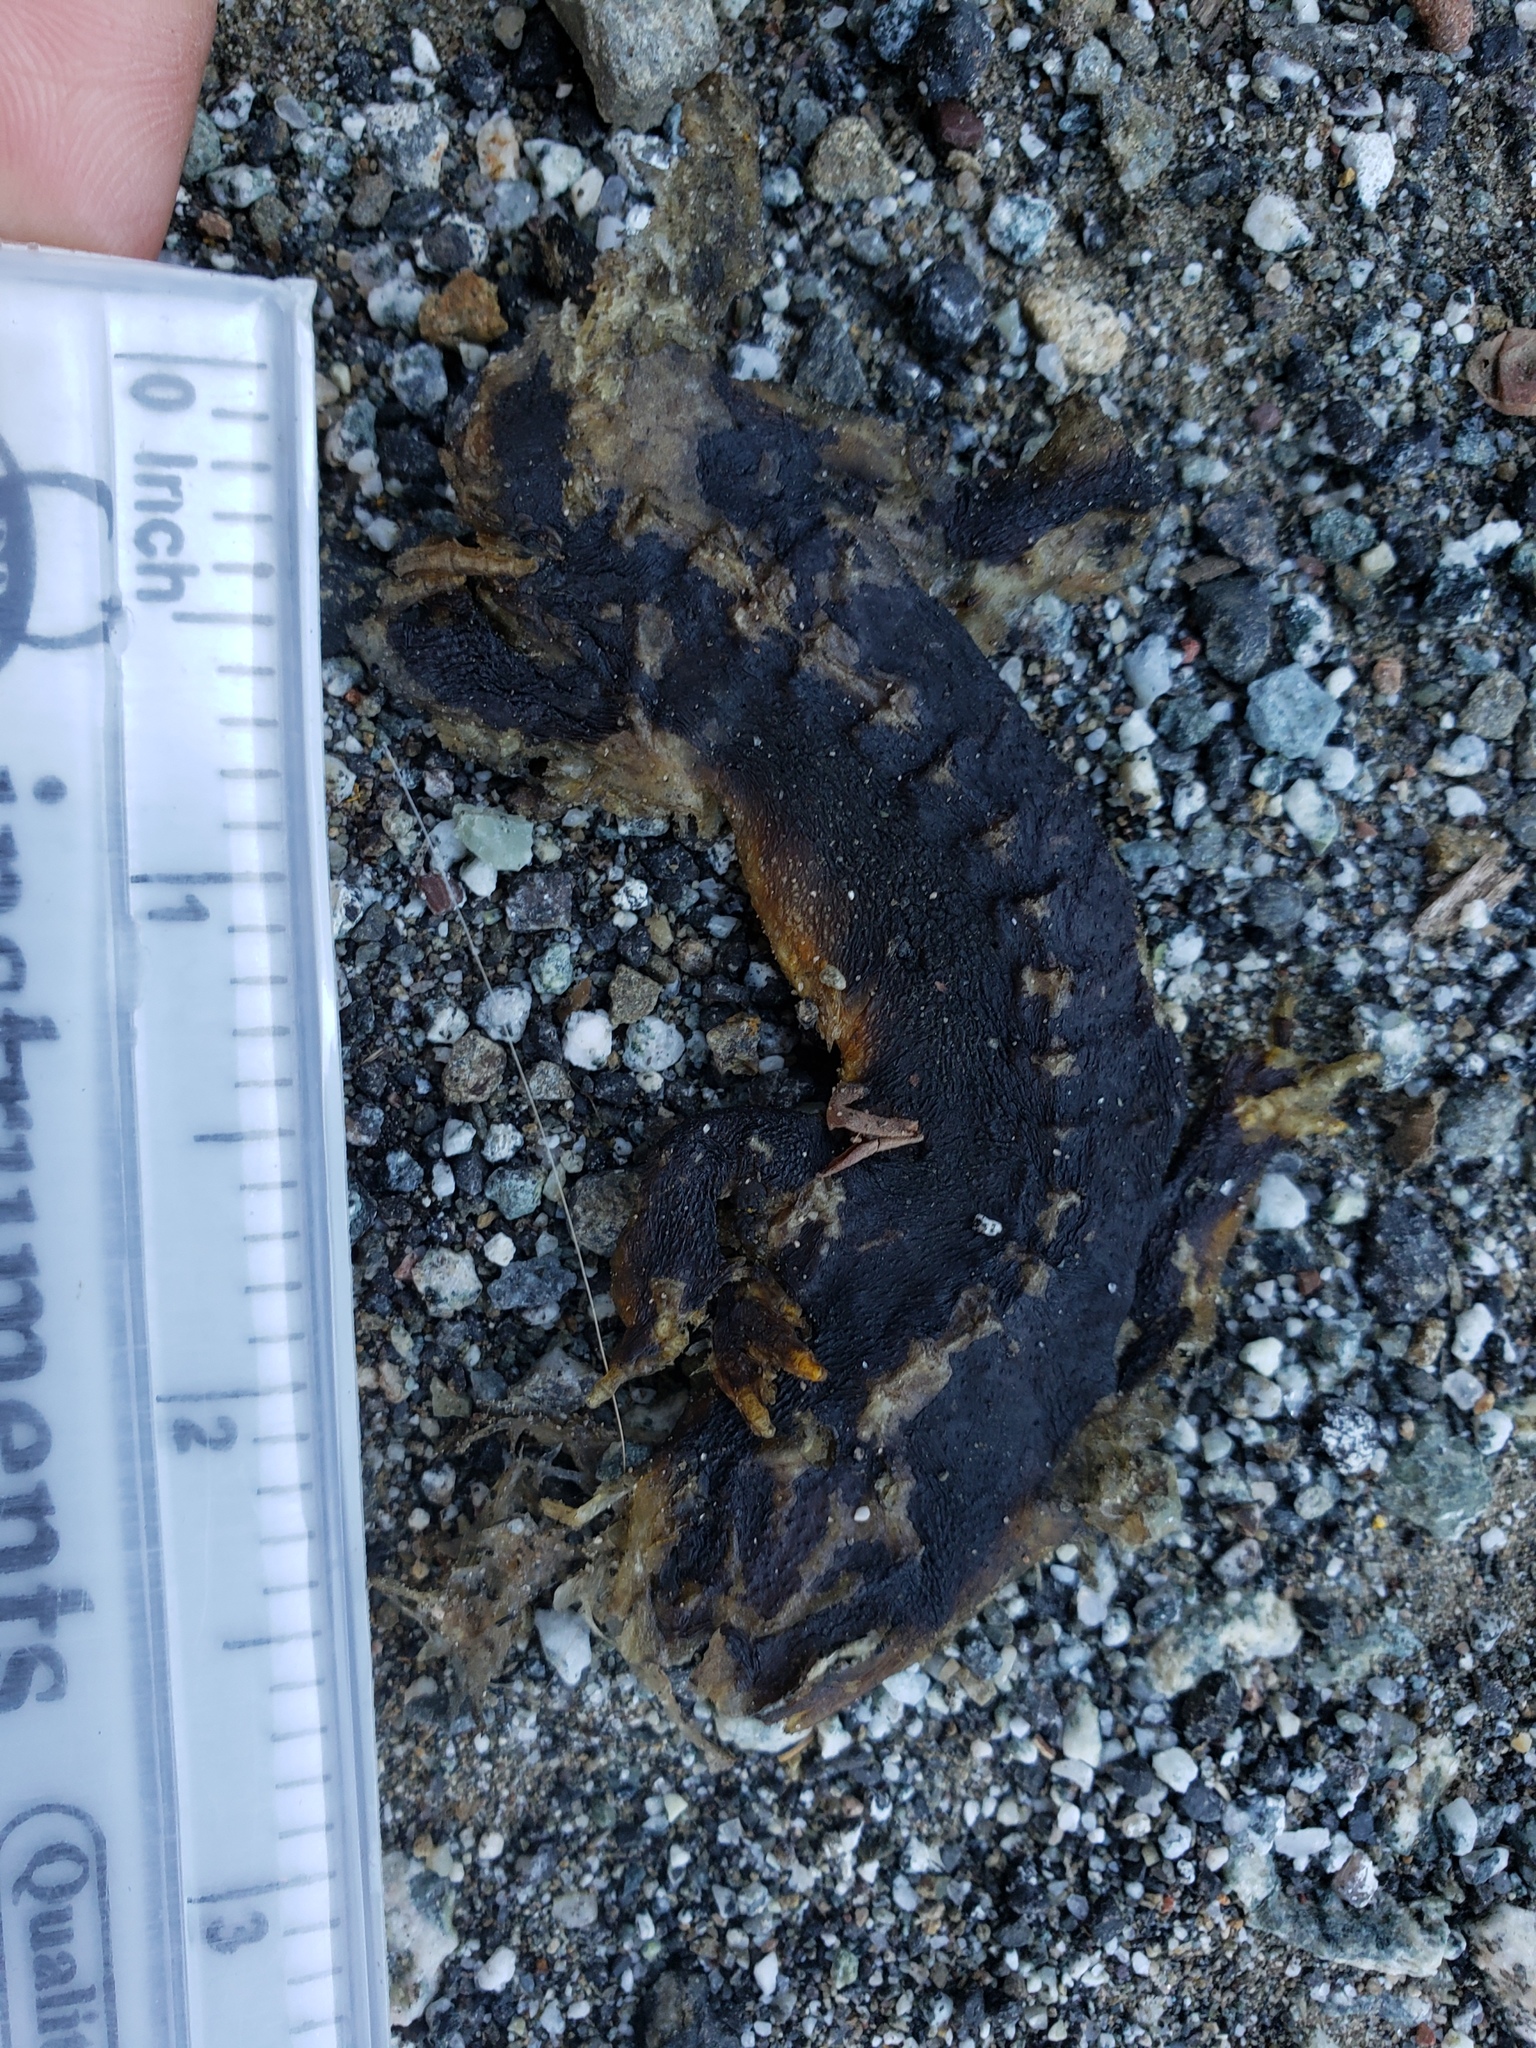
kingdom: Animalia
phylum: Chordata
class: Amphibia
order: Caudata
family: Salamandridae
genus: Taricha
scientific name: Taricha
